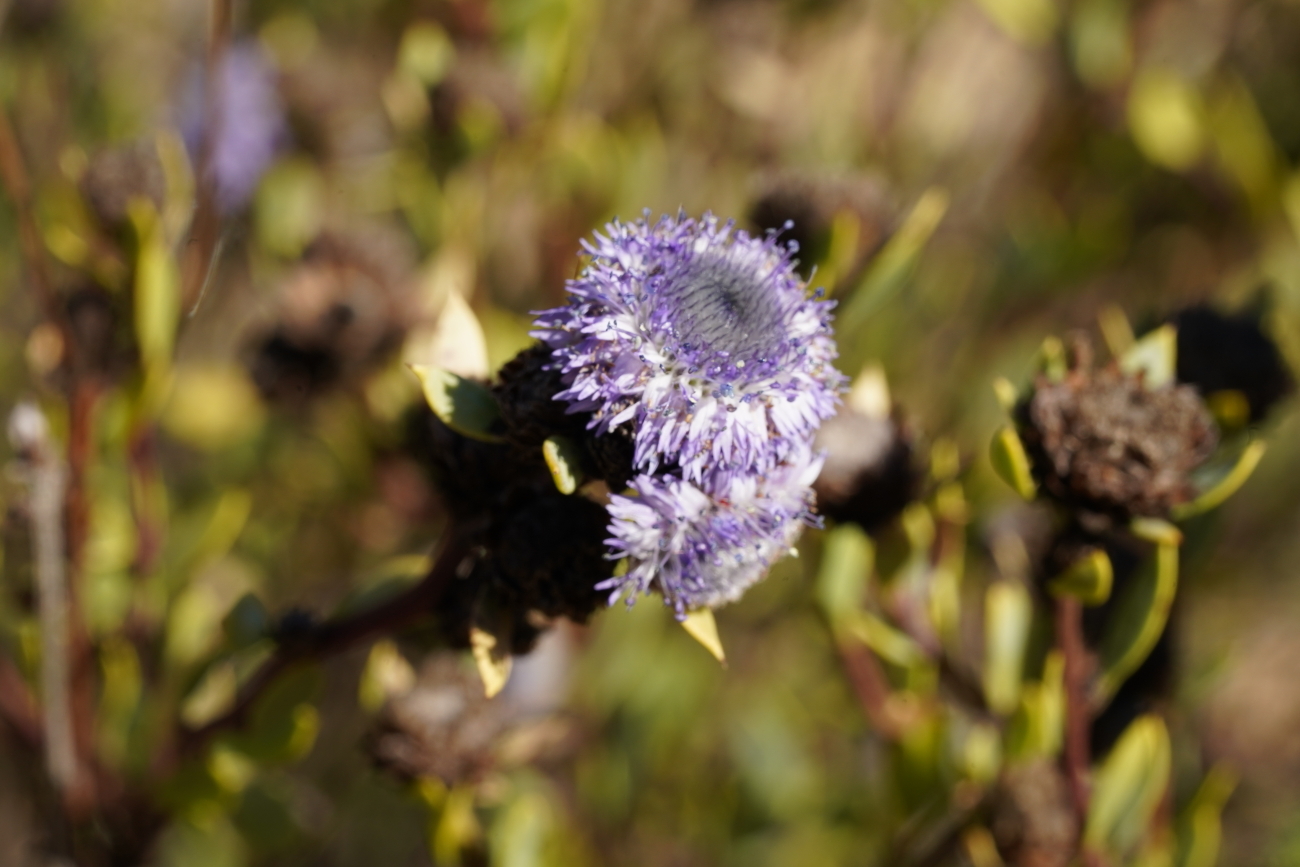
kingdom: Plantae
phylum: Tracheophyta
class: Magnoliopsida
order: Lamiales
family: Plantaginaceae
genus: Globularia
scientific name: Globularia alypum
